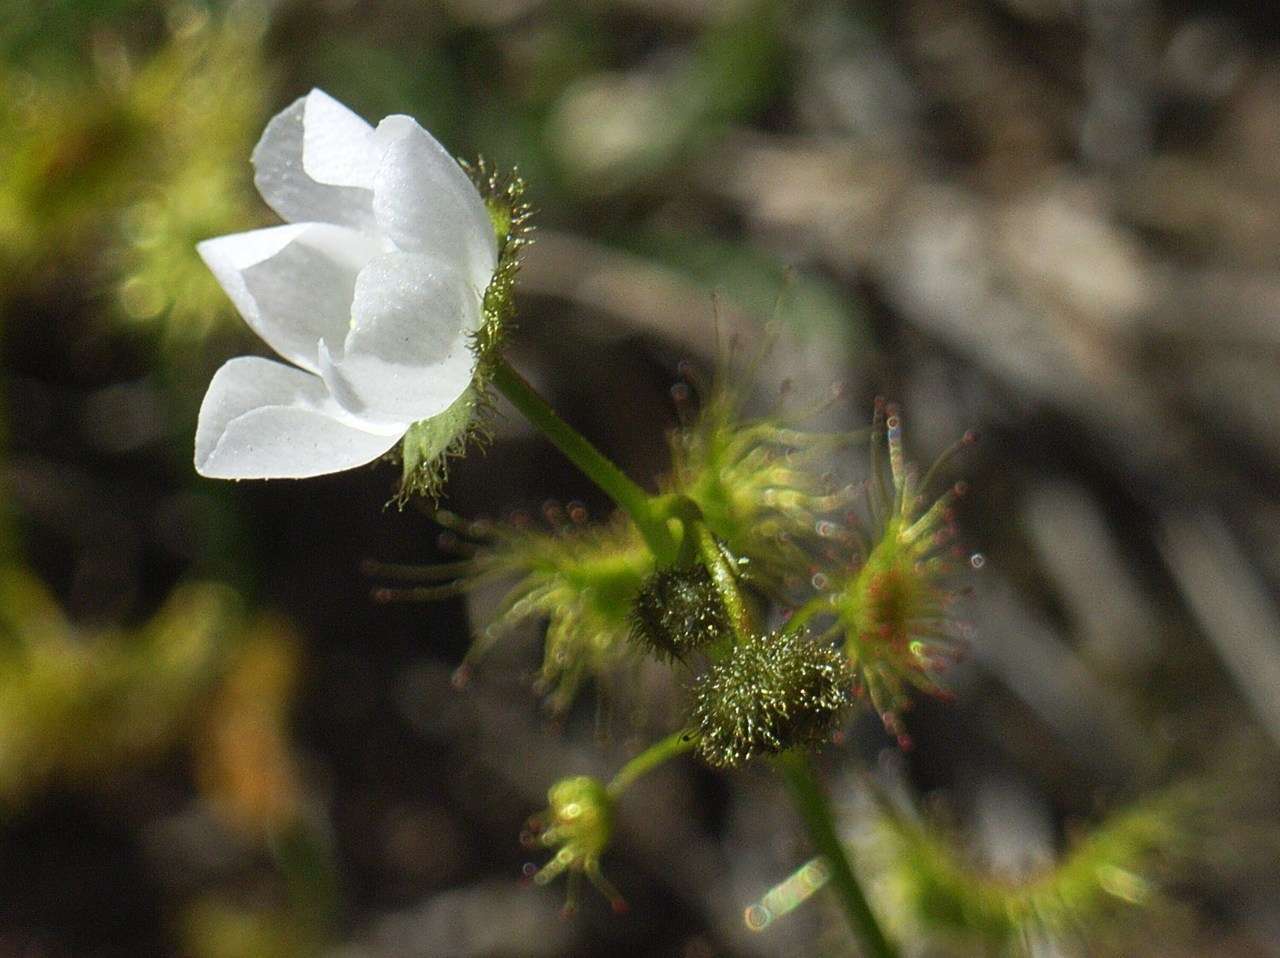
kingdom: Plantae
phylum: Tracheophyta
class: Magnoliopsida
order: Caryophyllales
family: Droseraceae
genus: Drosera
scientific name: Drosera gunniana
